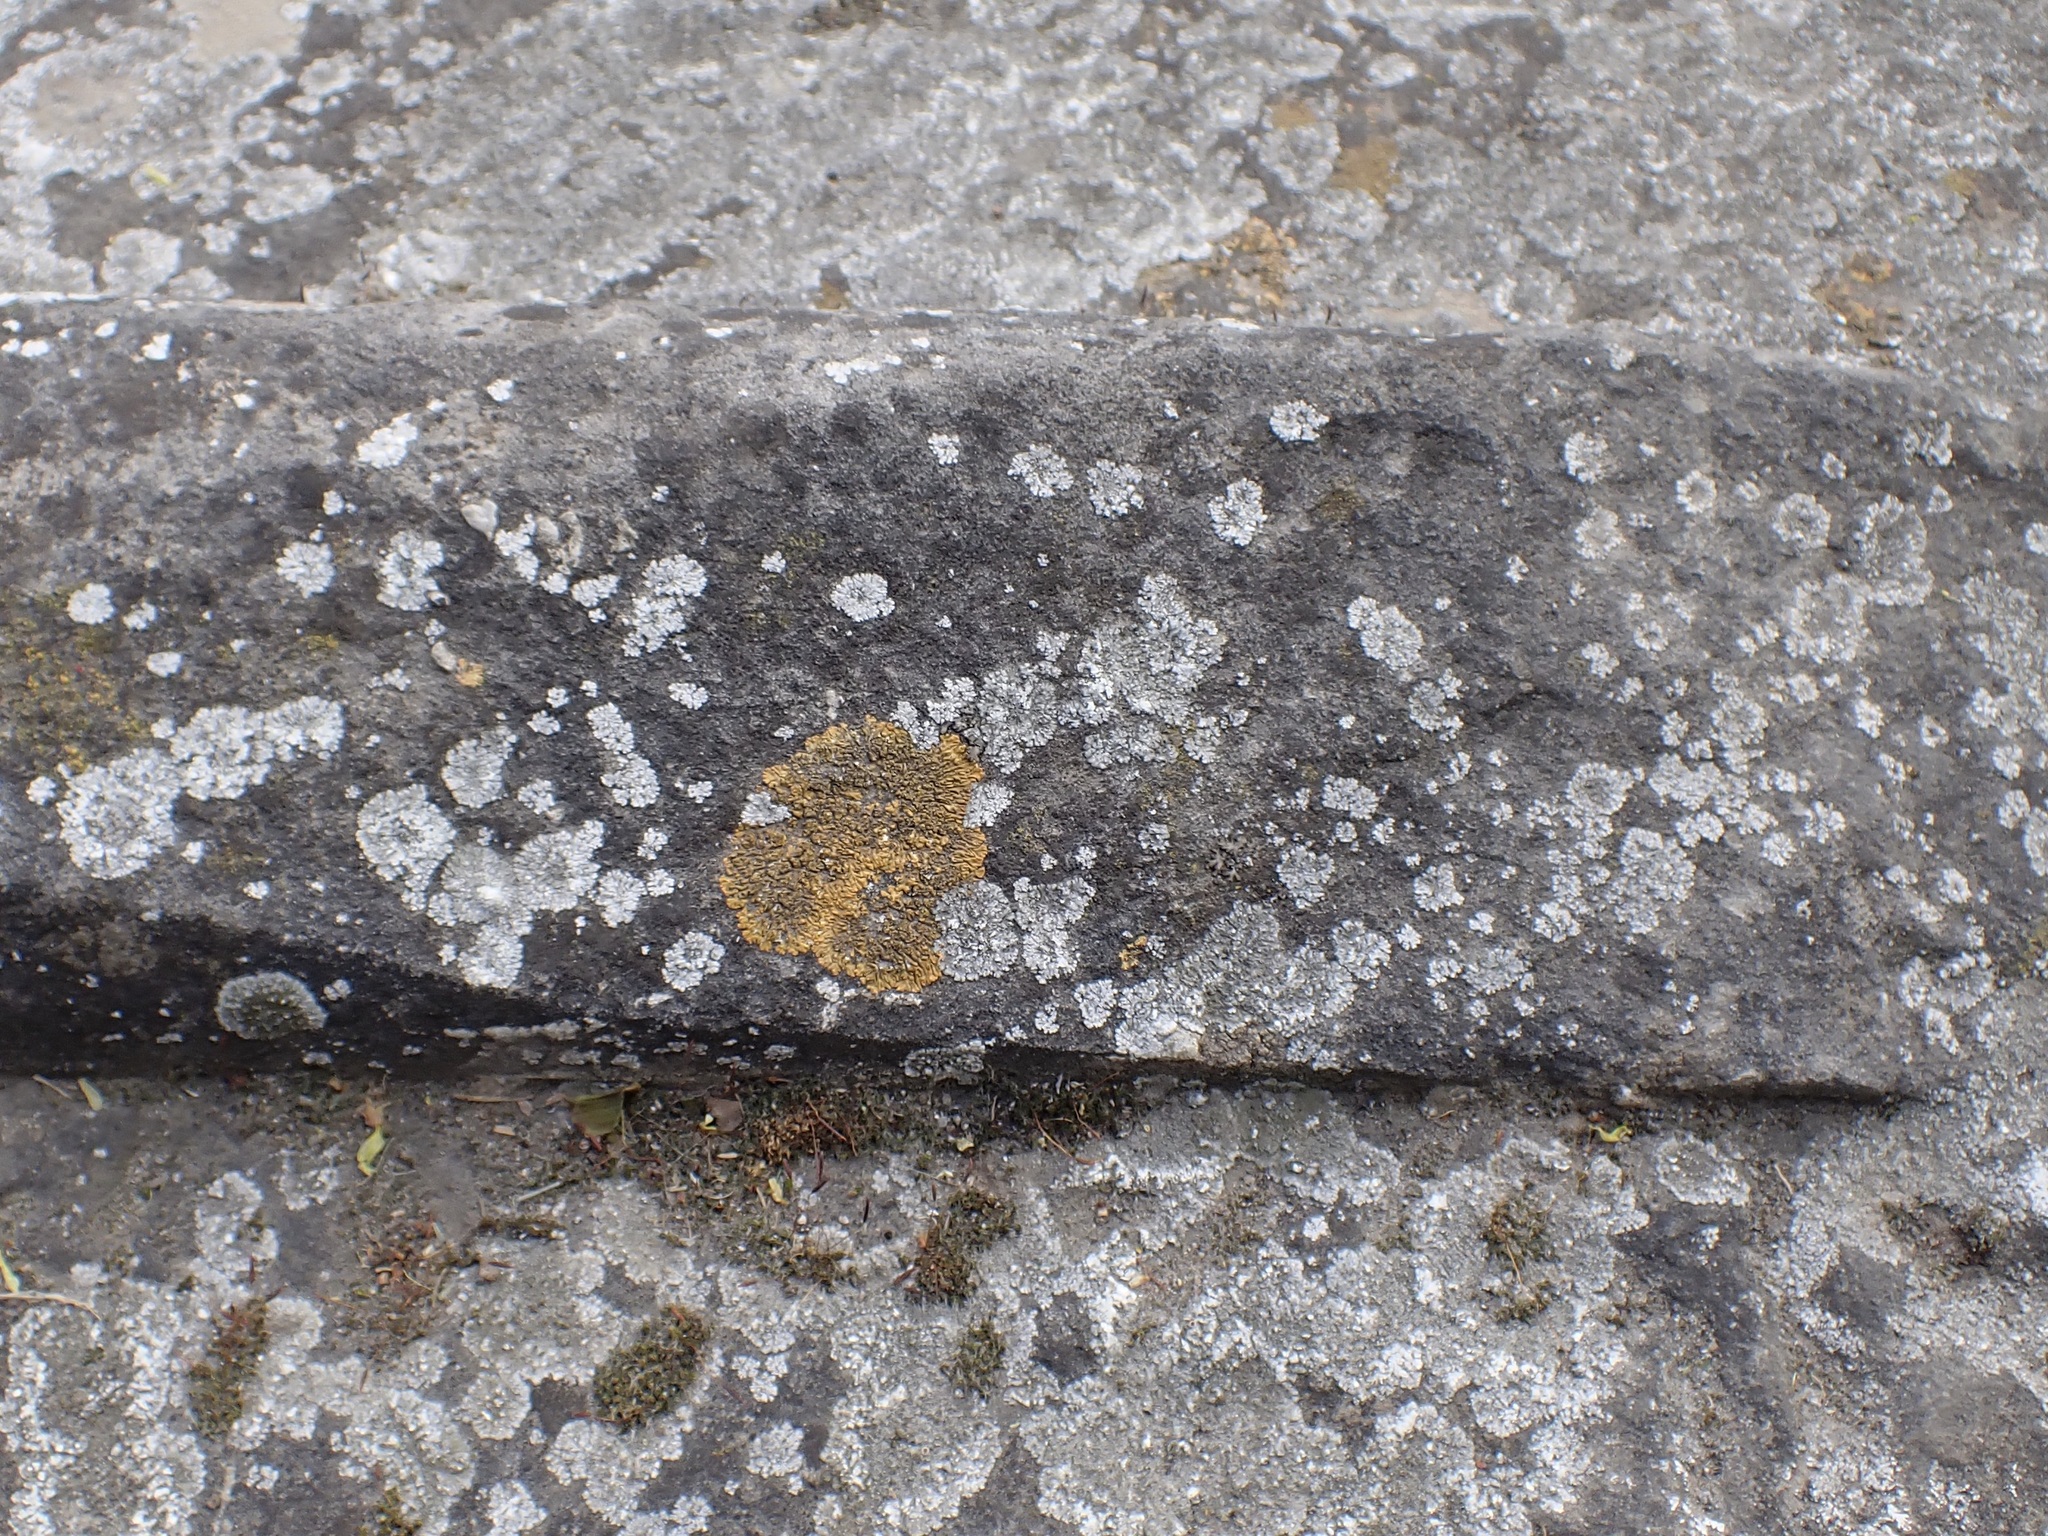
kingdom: Fungi
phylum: Ascomycota
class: Lecanoromycetes
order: Teloschistales
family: Teloschistaceae
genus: Calogaya
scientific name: Calogaya decipiens
